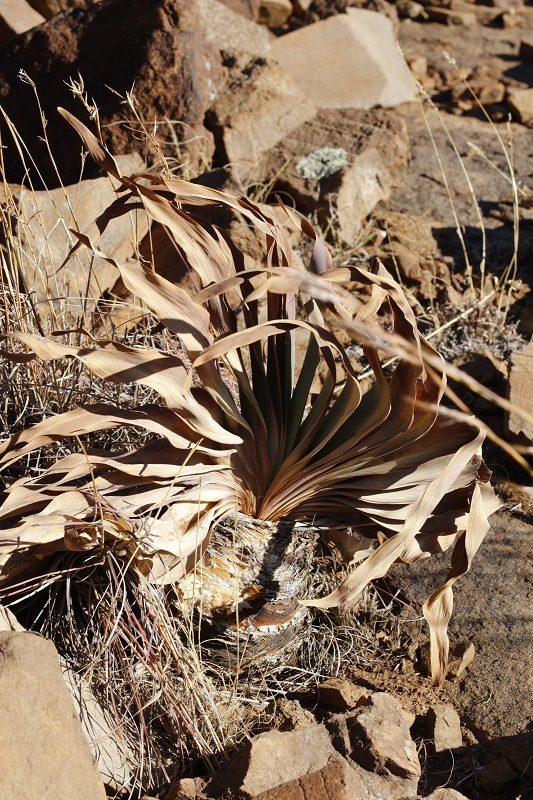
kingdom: Plantae
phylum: Tracheophyta
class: Liliopsida
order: Asparagales
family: Amaryllidaceae
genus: Boophone
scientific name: Boophone disticha
